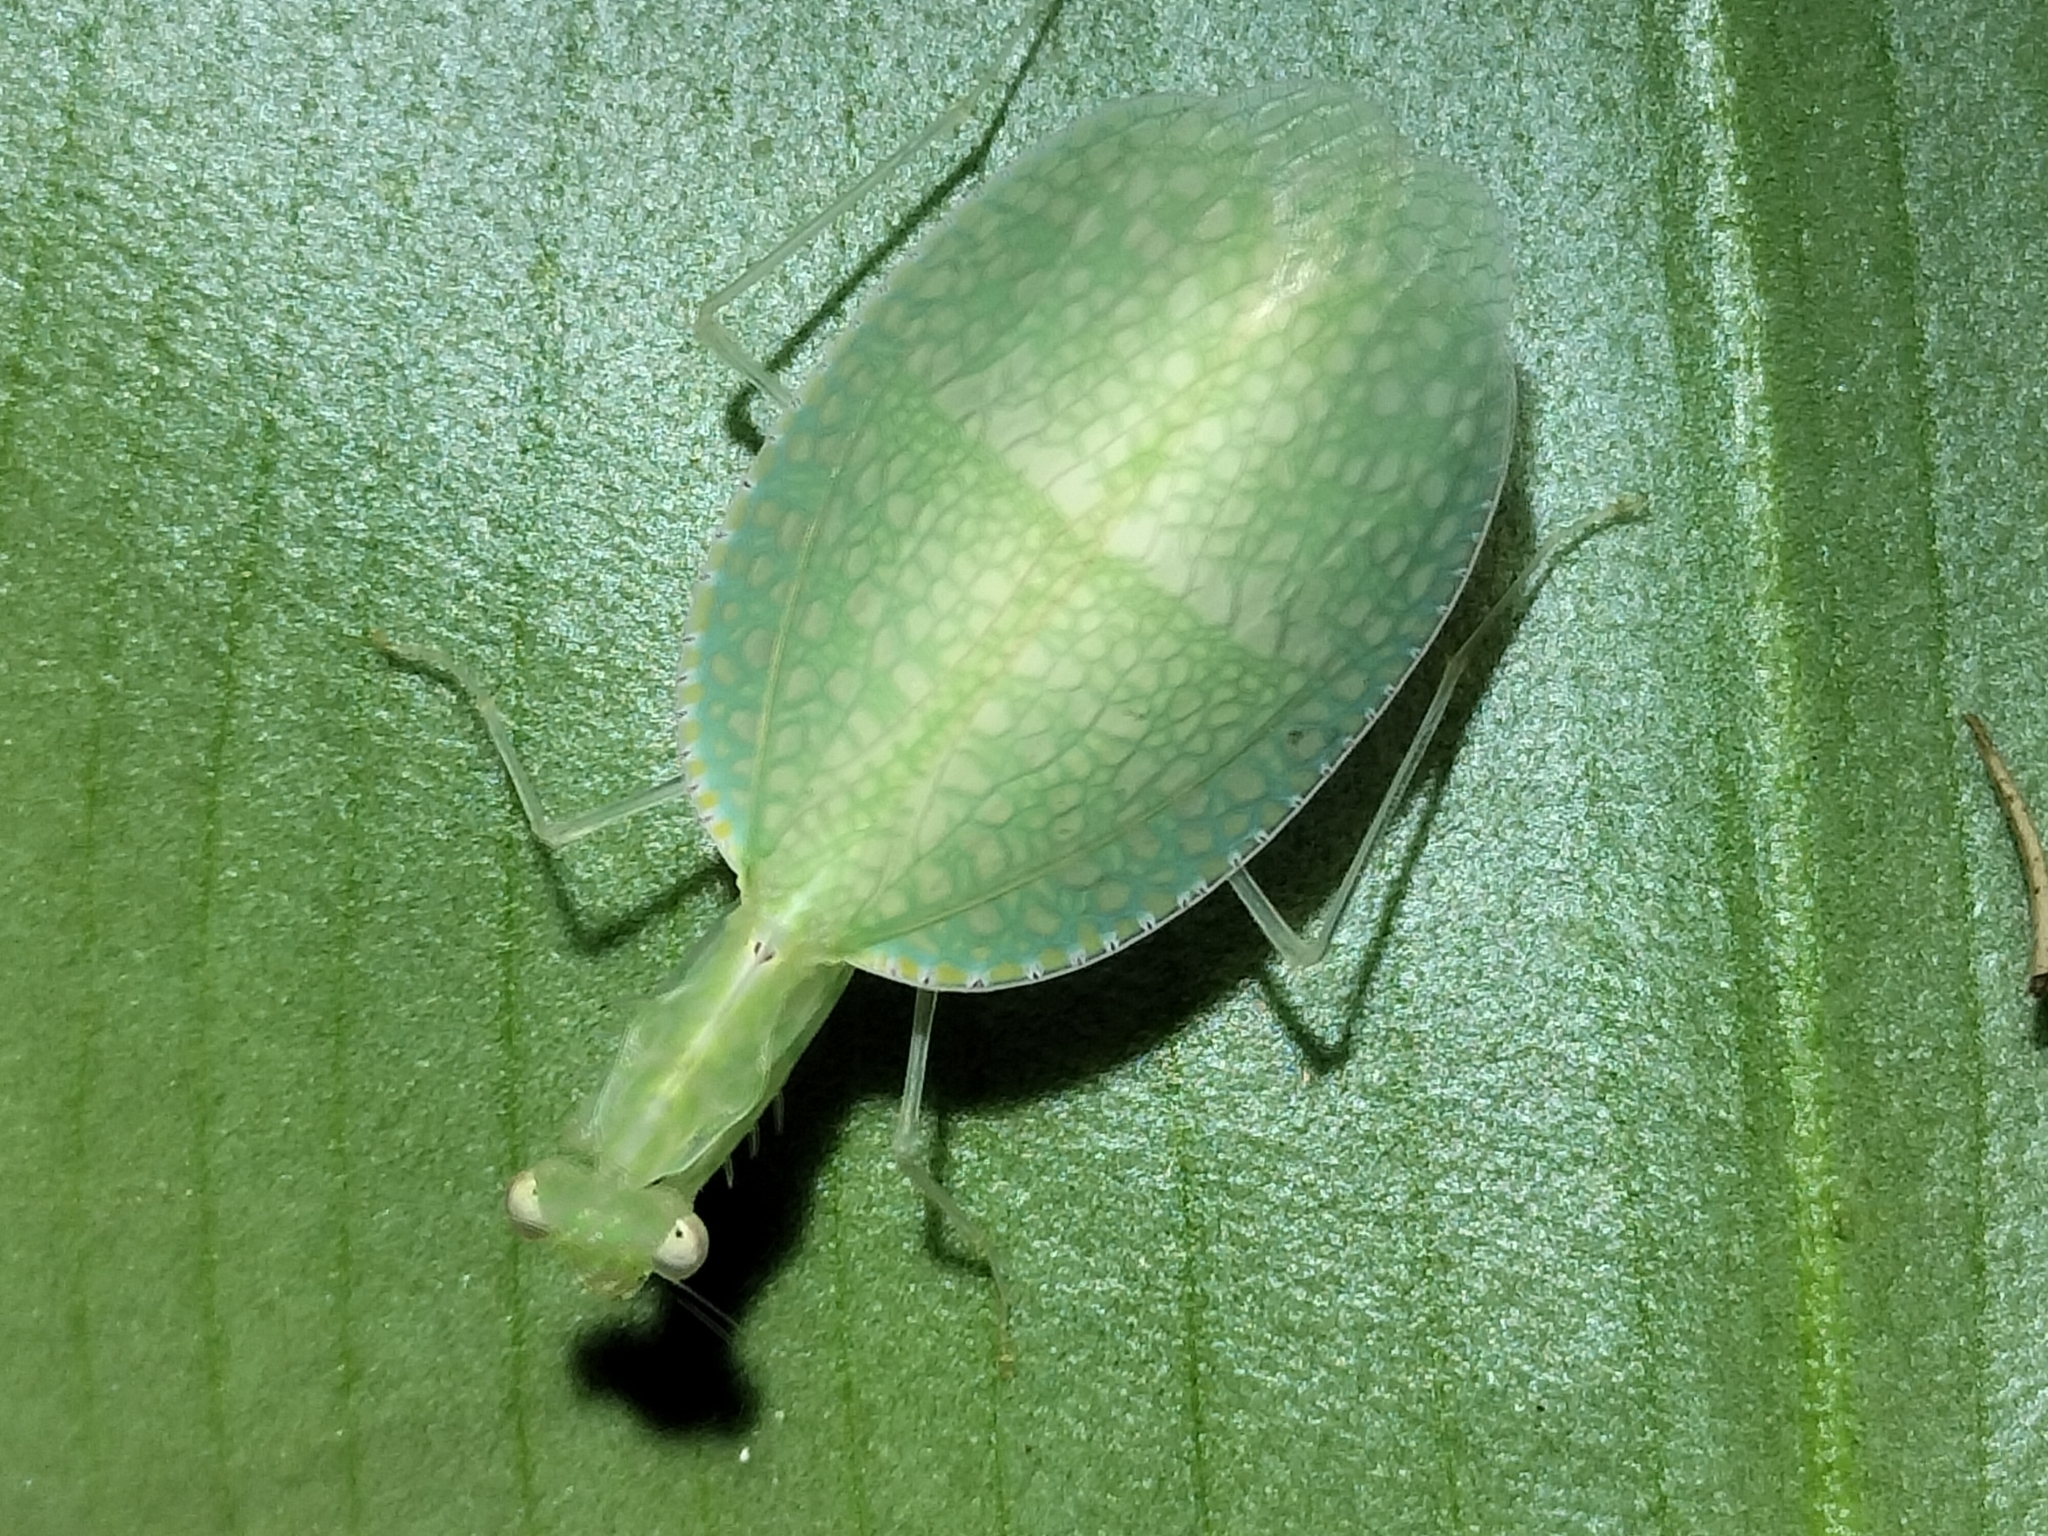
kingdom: Animalia
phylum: Arthropoda
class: Insecta
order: Mantodea
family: Nanomantidae
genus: Neomantis
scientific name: Neomantis australis
